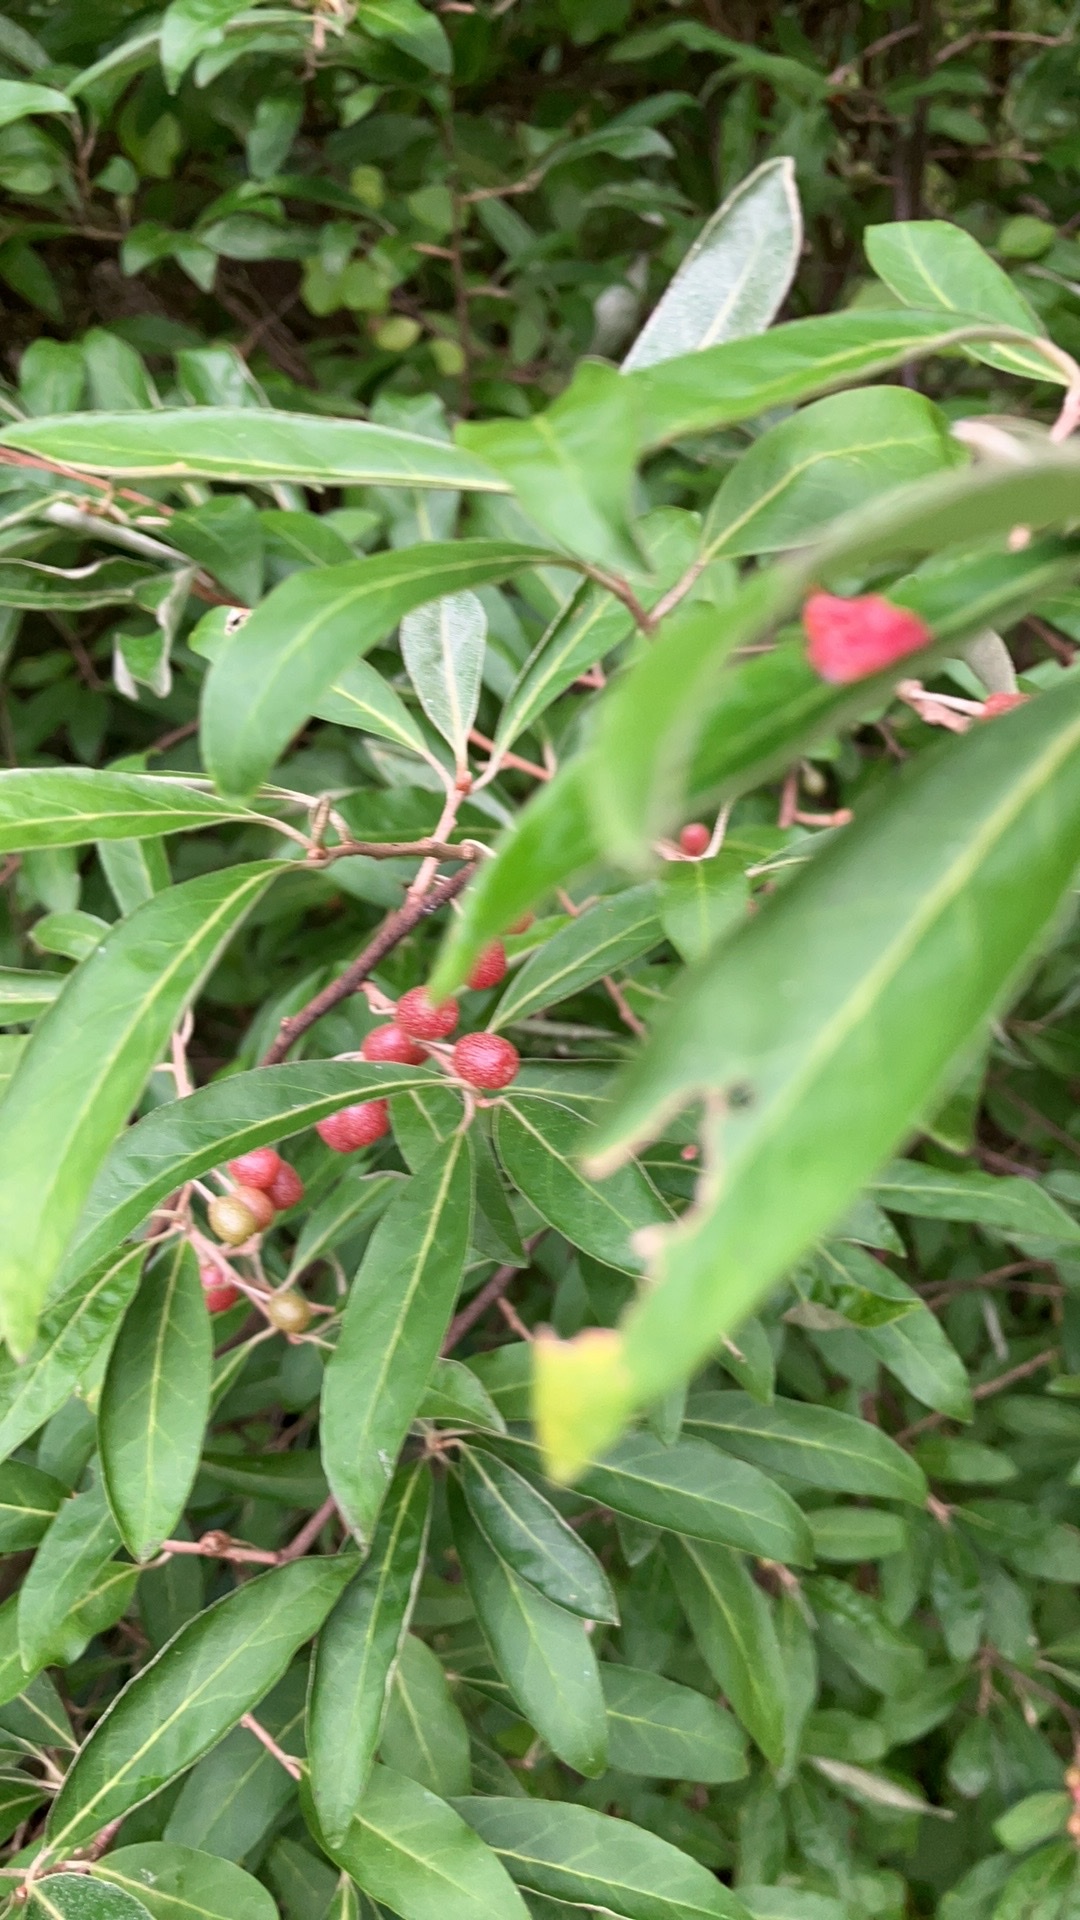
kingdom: Plantae
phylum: Tracheophyta
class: Magnoliopsida
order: Rosales
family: Elaeagnaceae
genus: Elaeagnus
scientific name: Elaeagnus umbellata
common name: Autumn olive
